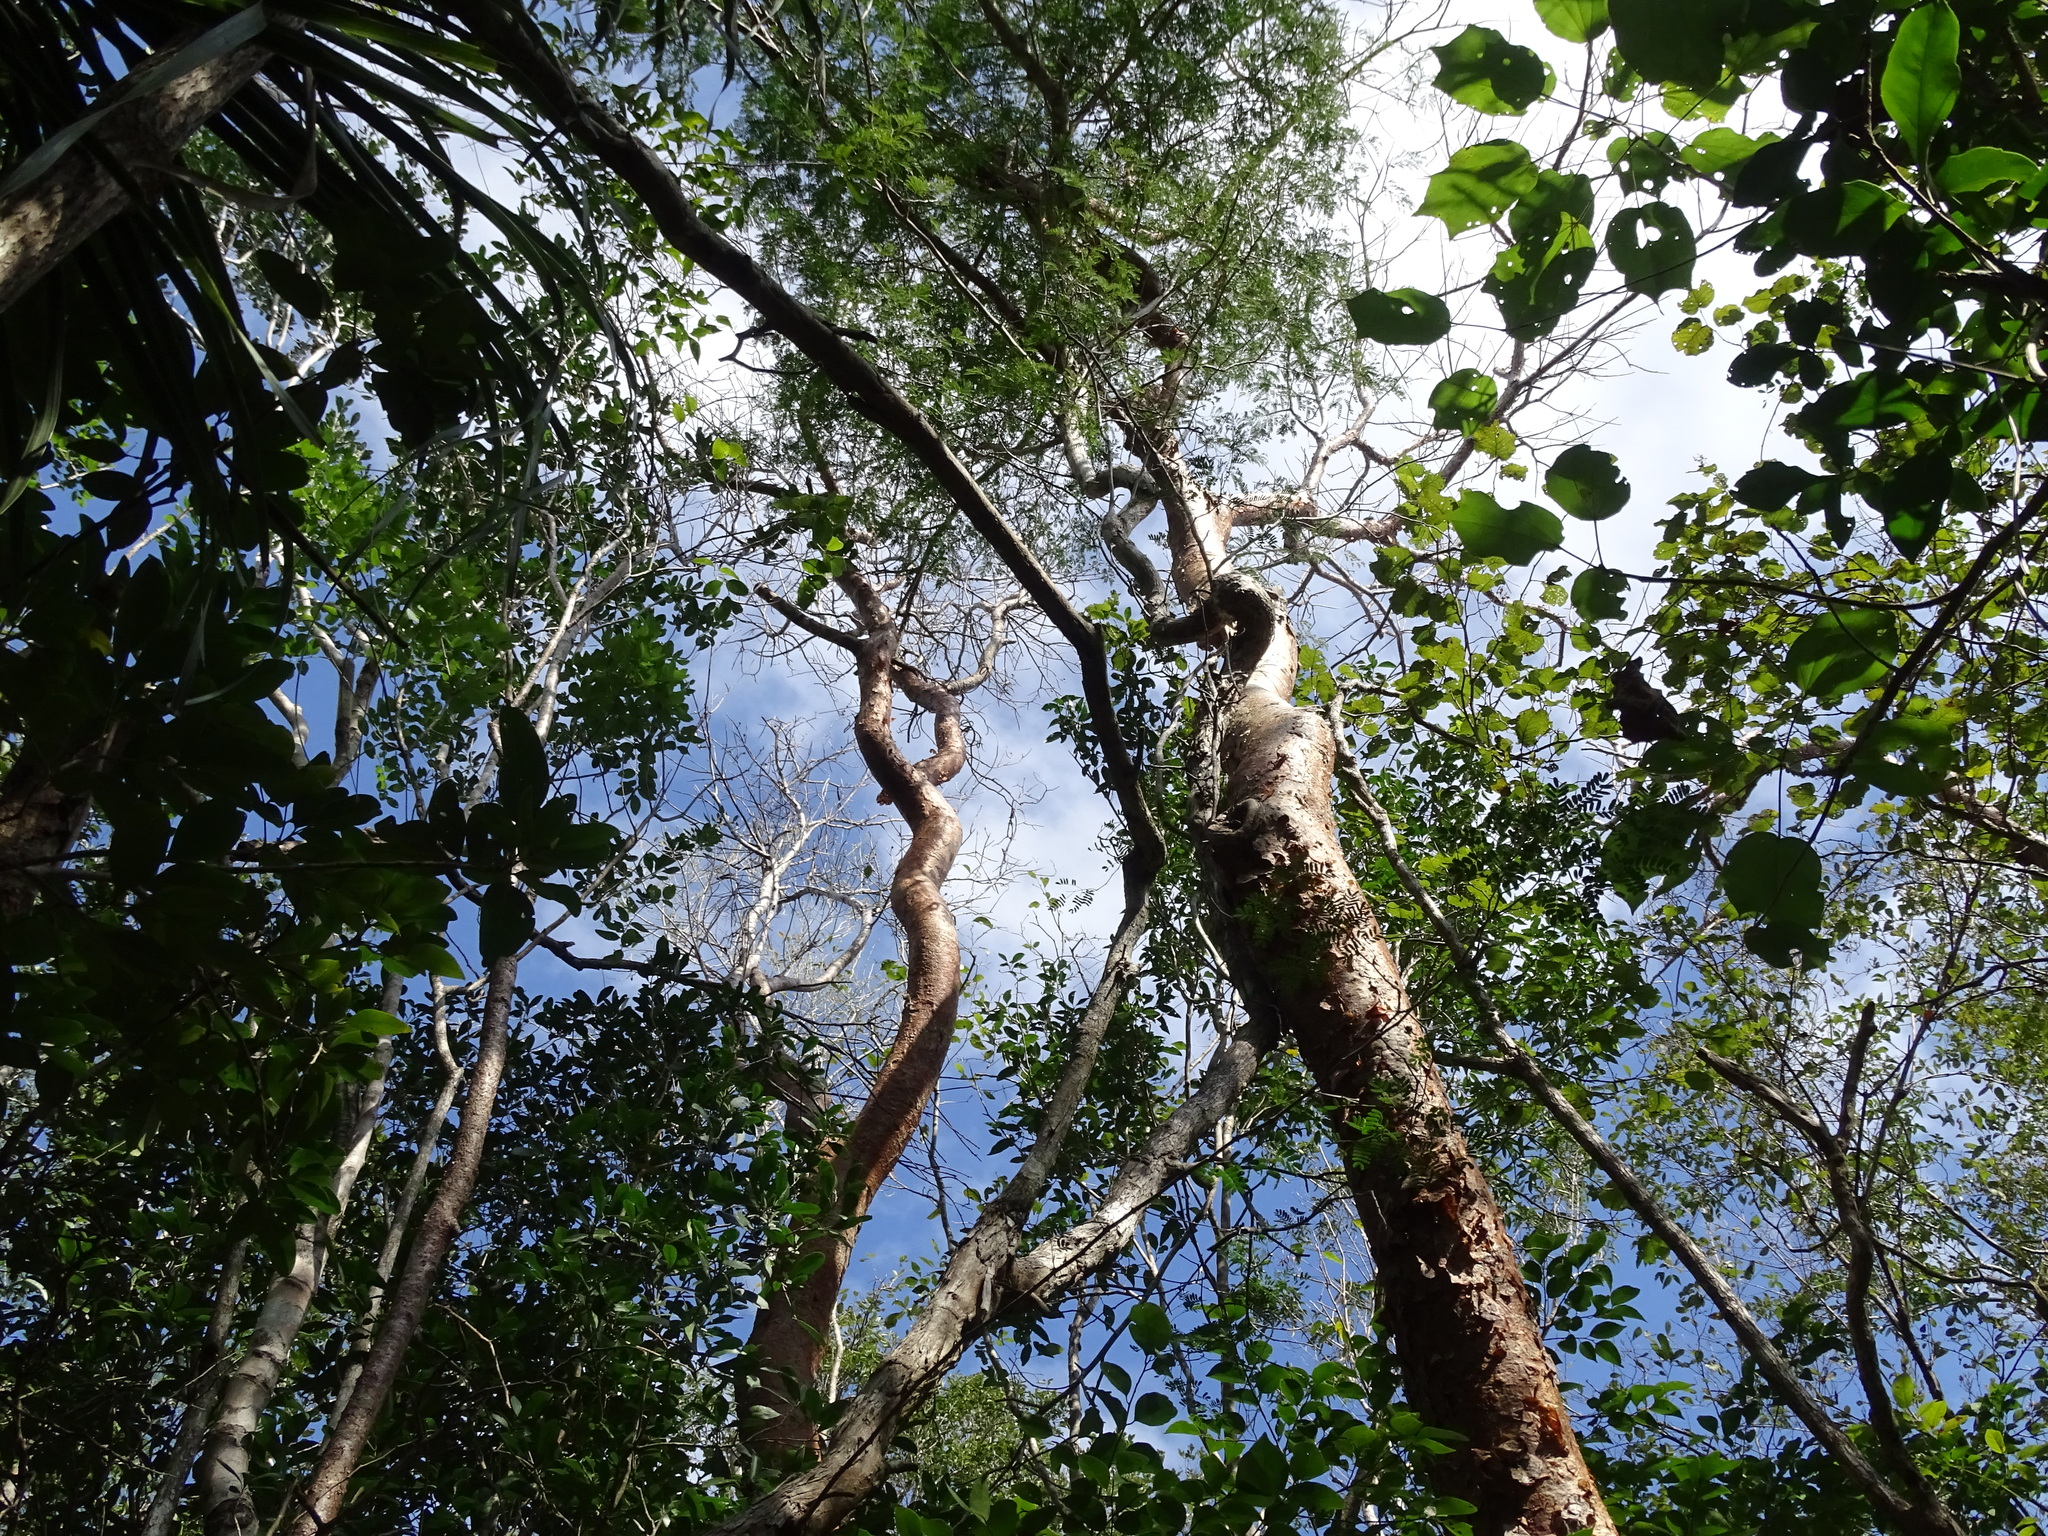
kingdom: Plantae
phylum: Tracheophyta
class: Magnoliopsida
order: Fabales
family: Fabaceae
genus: Machaerium
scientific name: Machaerium riparium
